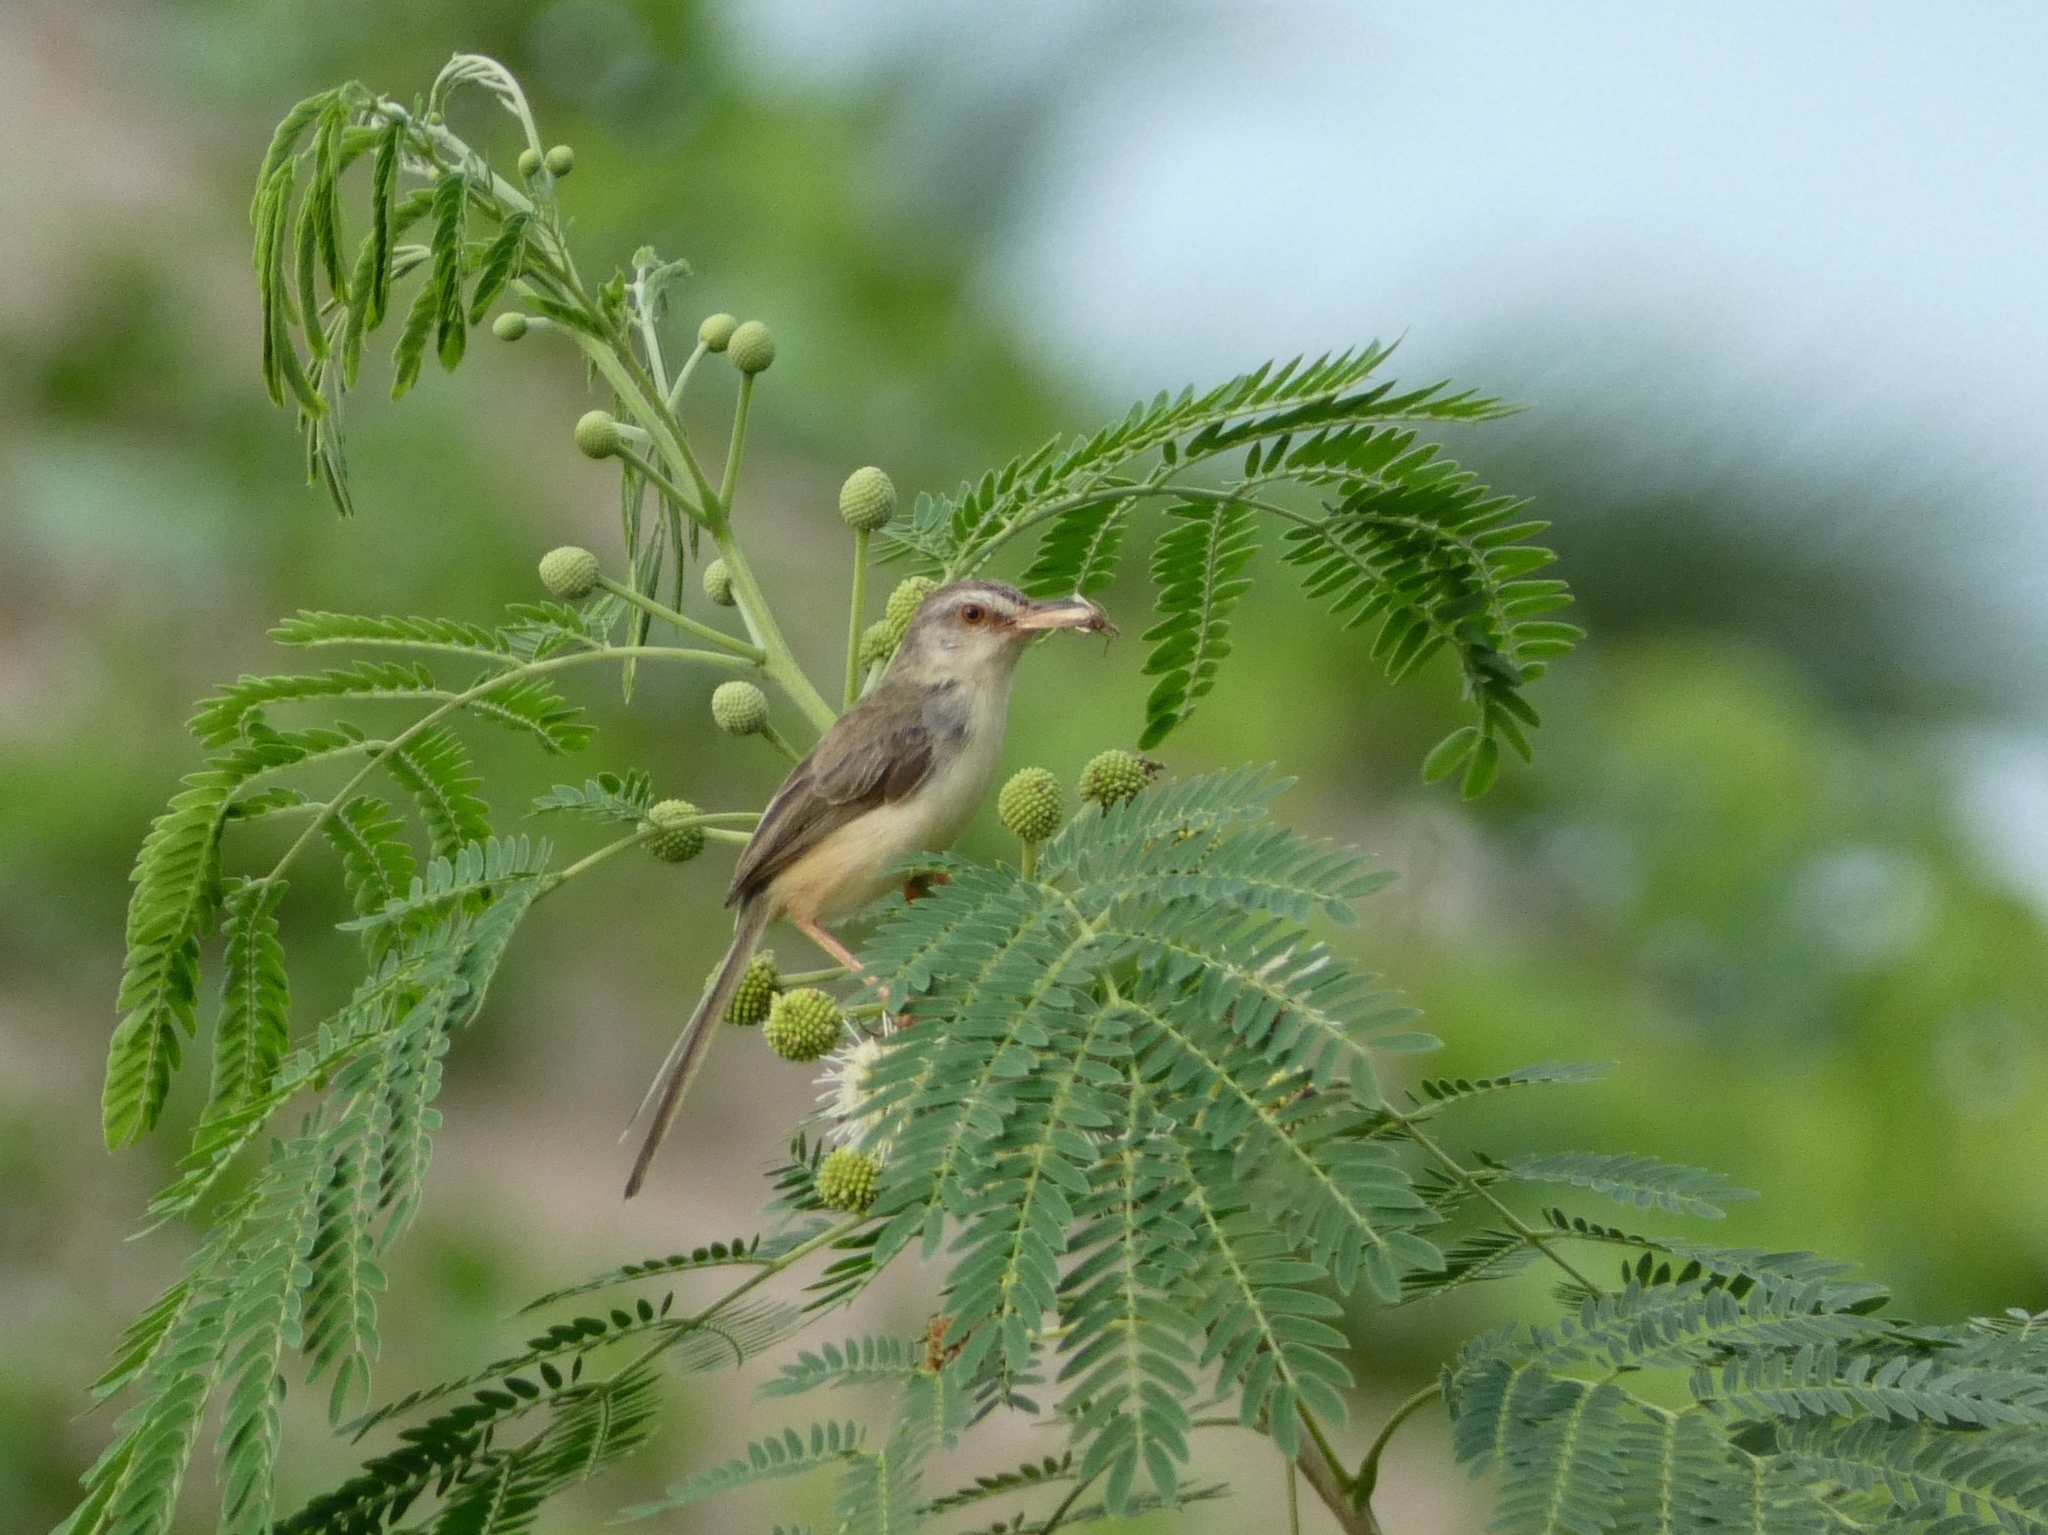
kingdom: Animalia
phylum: Chordata
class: Aves
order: Passeriformes
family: Cisticolidae
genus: Prinia
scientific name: Prinia inornata
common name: Plain prinia
